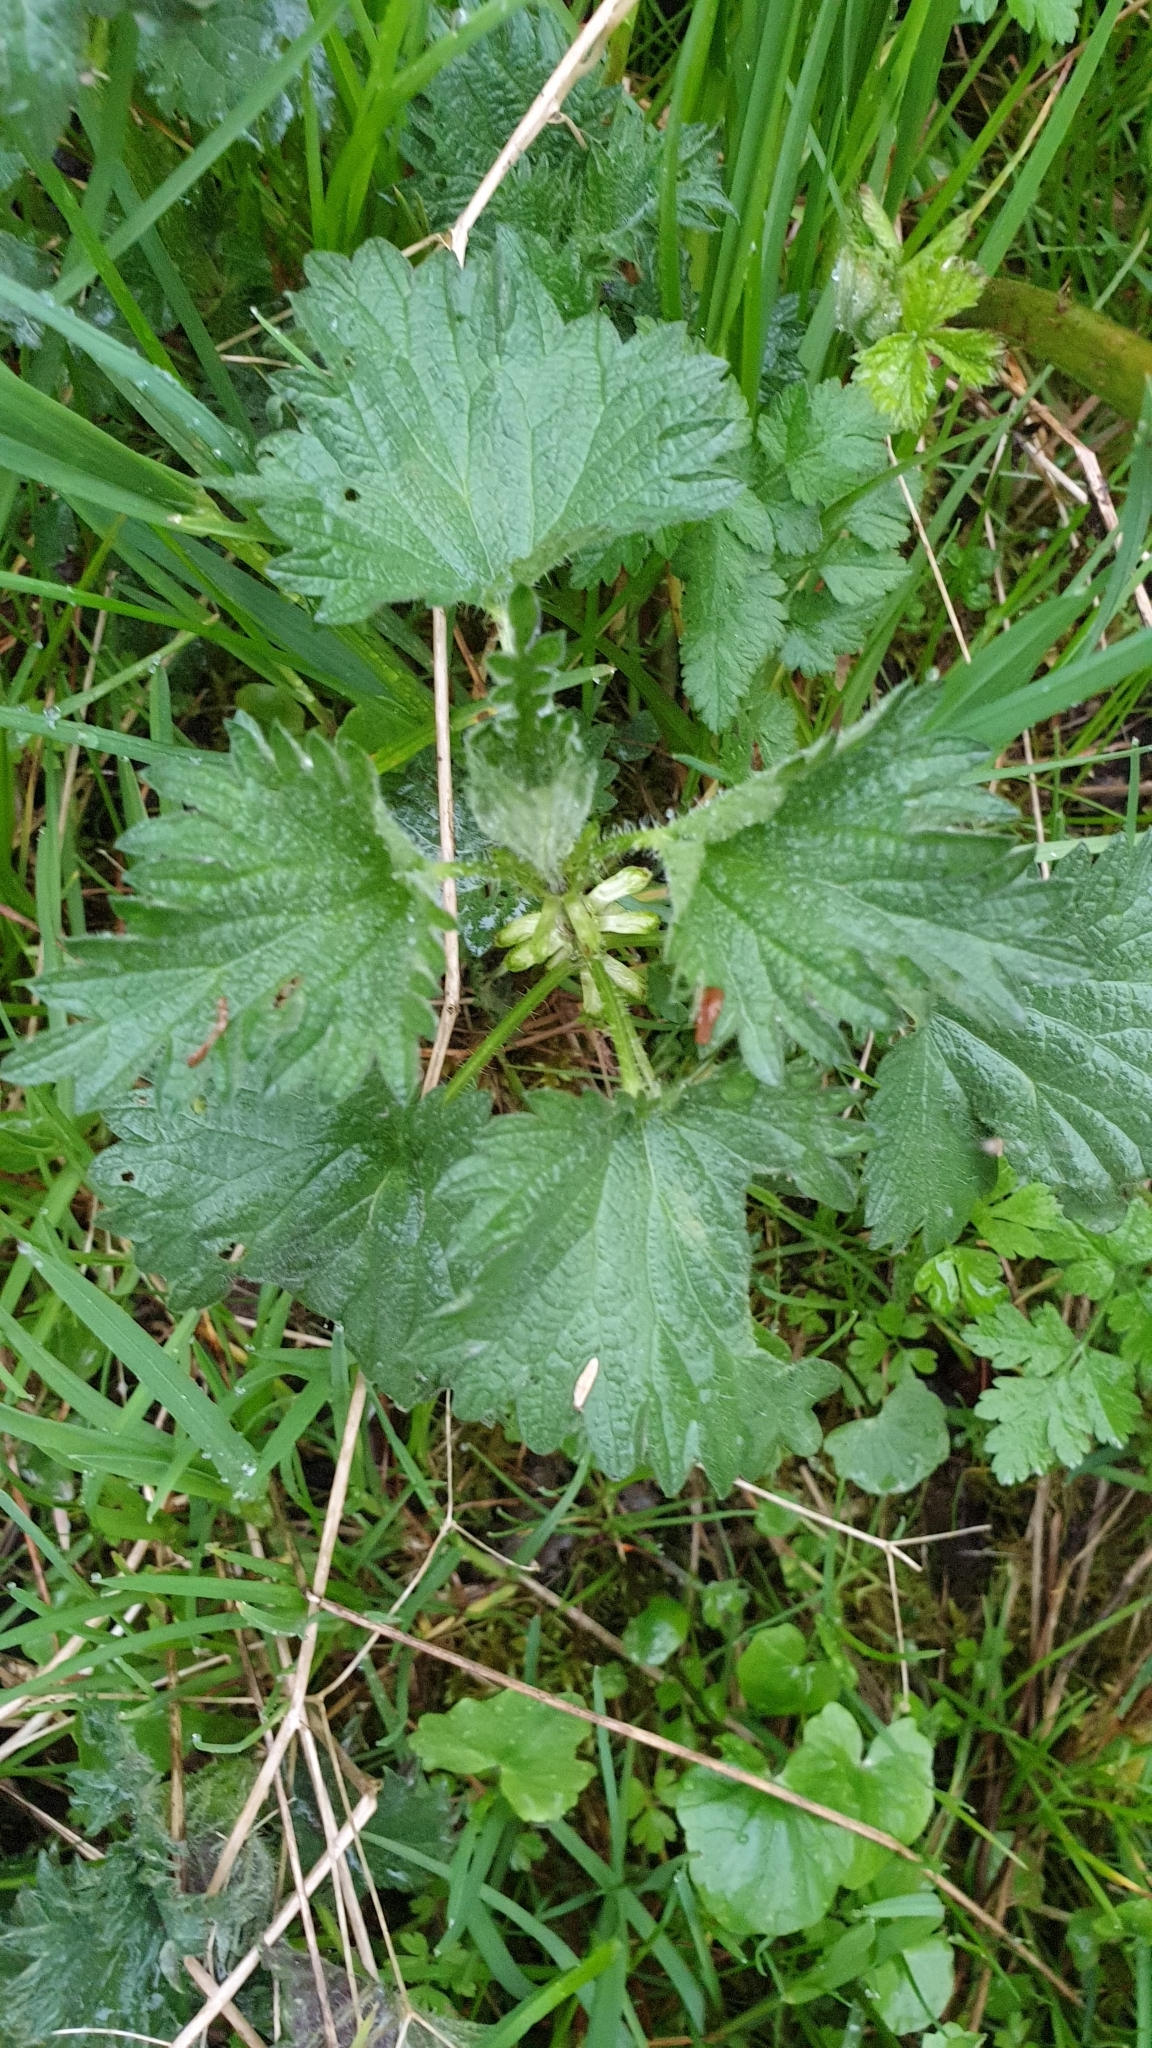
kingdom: Plantae
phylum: Tracheophyta
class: Magnoliopsida
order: Rosales
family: Urticaceae
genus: Urtica
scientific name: Urtica dioica
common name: Common nettle
